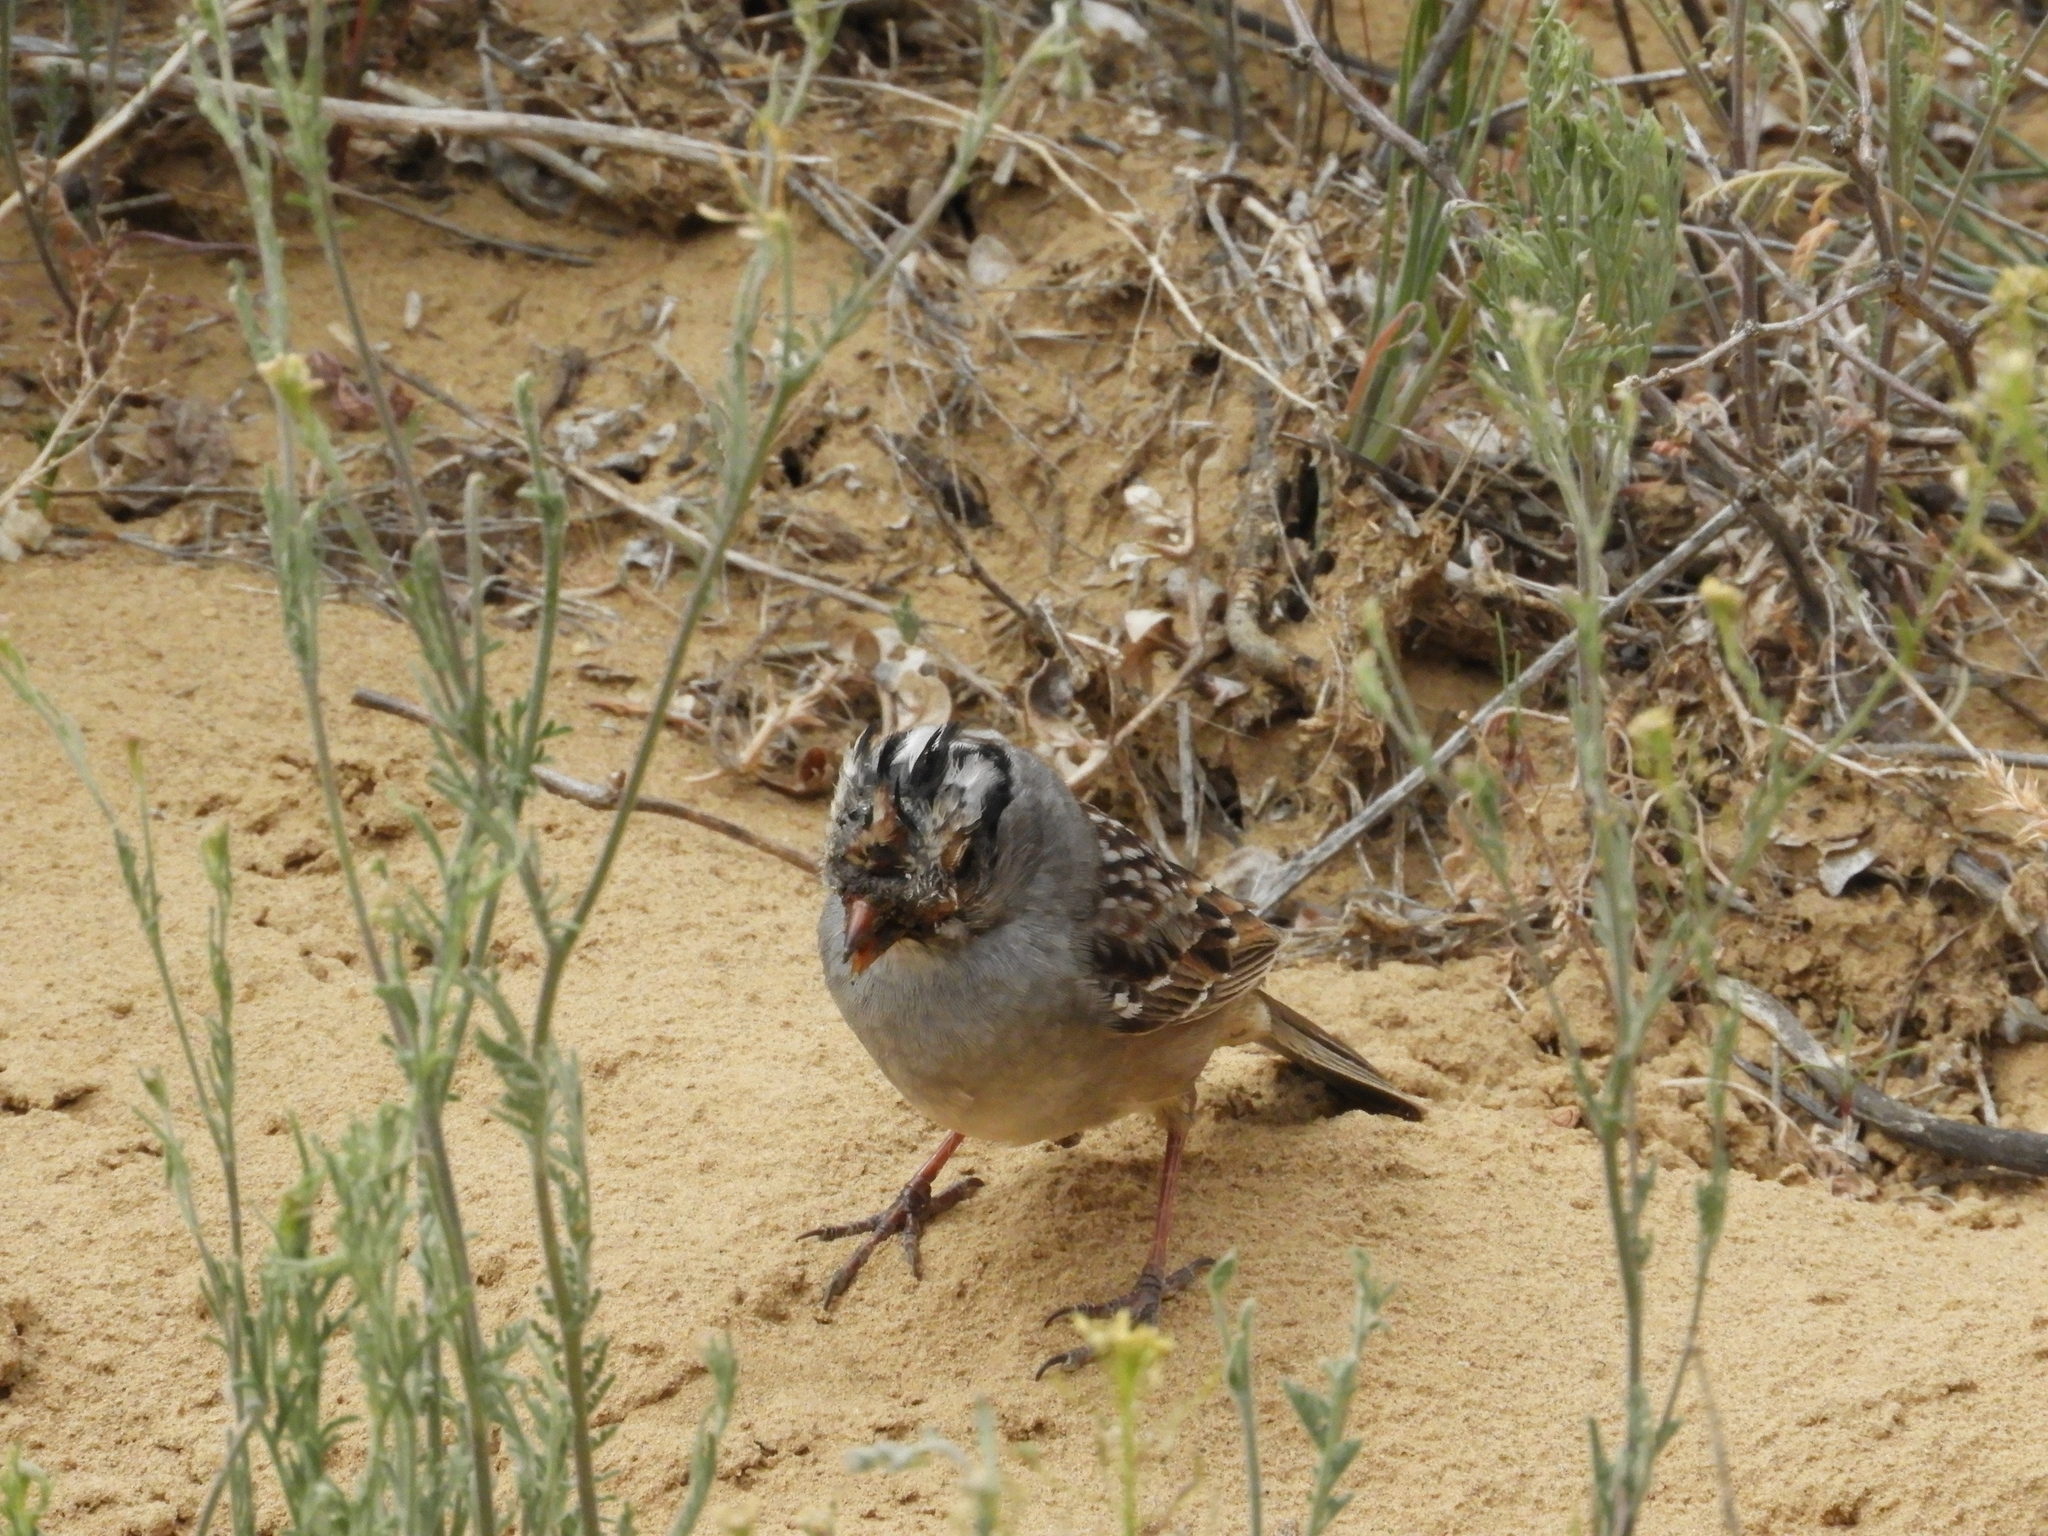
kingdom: Animalia
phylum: Chordata
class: Aves
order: Passeriformes
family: Passerellidae
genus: Zonotrichia
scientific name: Zonotrichia leucophrys
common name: White-crowned sparrow
